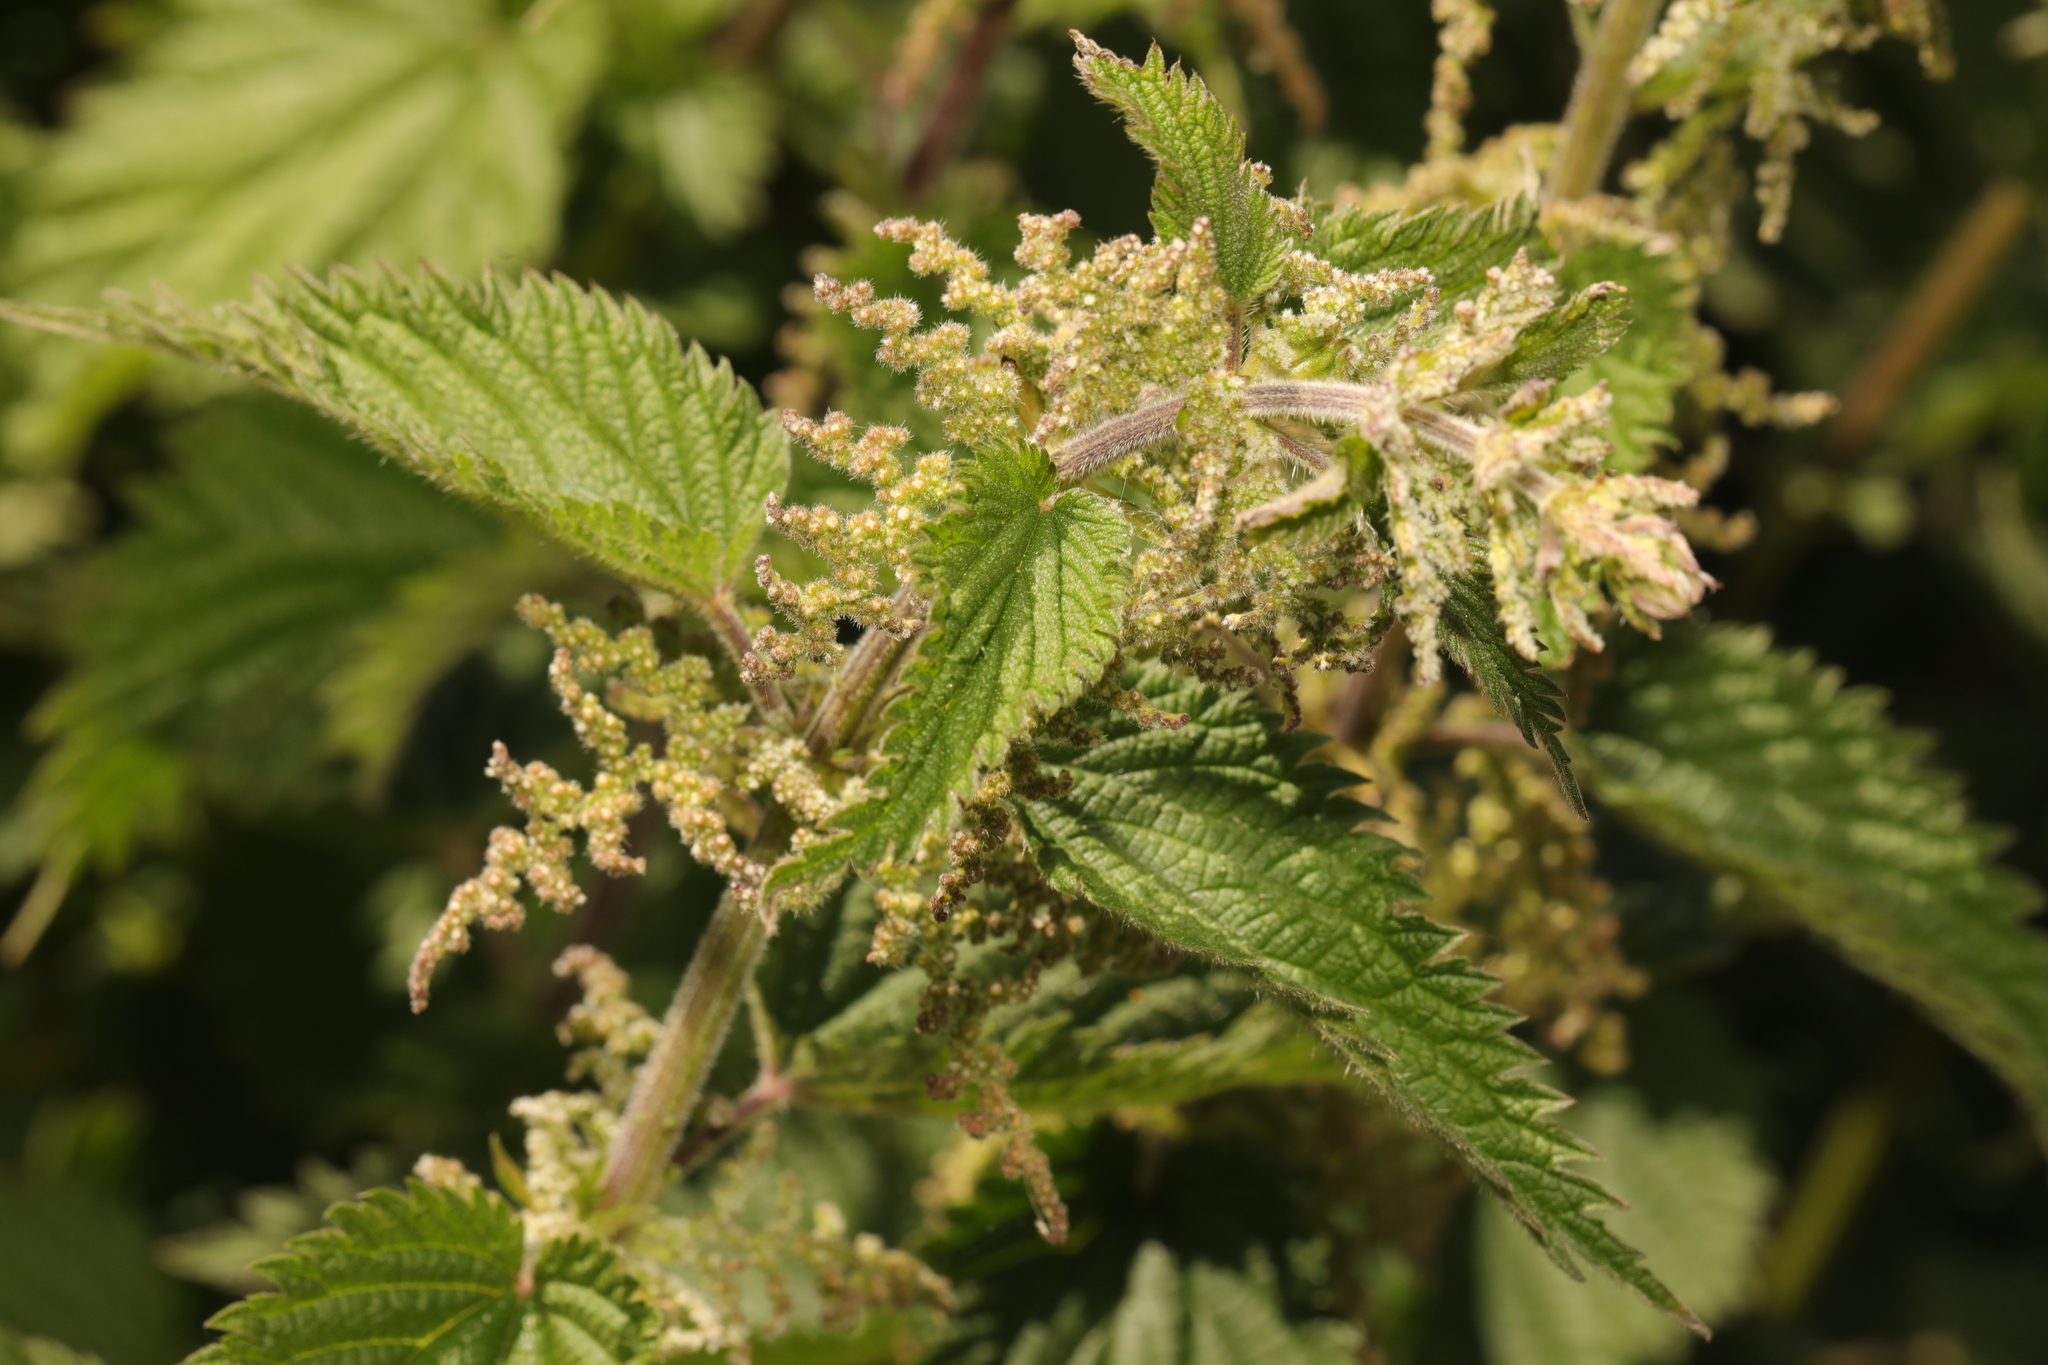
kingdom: Plantae
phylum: Tracheophyta
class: Magnoliopsida
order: Rosales
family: Urticaceae
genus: Urtica
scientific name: Urtica dioica
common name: Common nettle
